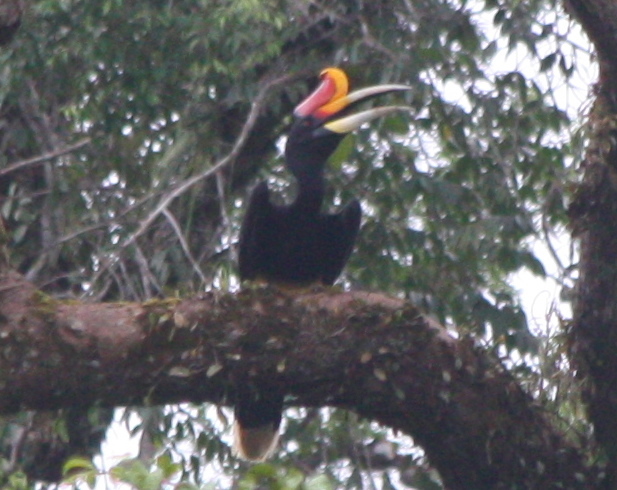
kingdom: Animalia
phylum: Chordata
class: Aves
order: Bucerotiformes
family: Bucerotidae
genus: Buceros
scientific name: Buceros rhinoceros
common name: Rhinoceros hornbill
